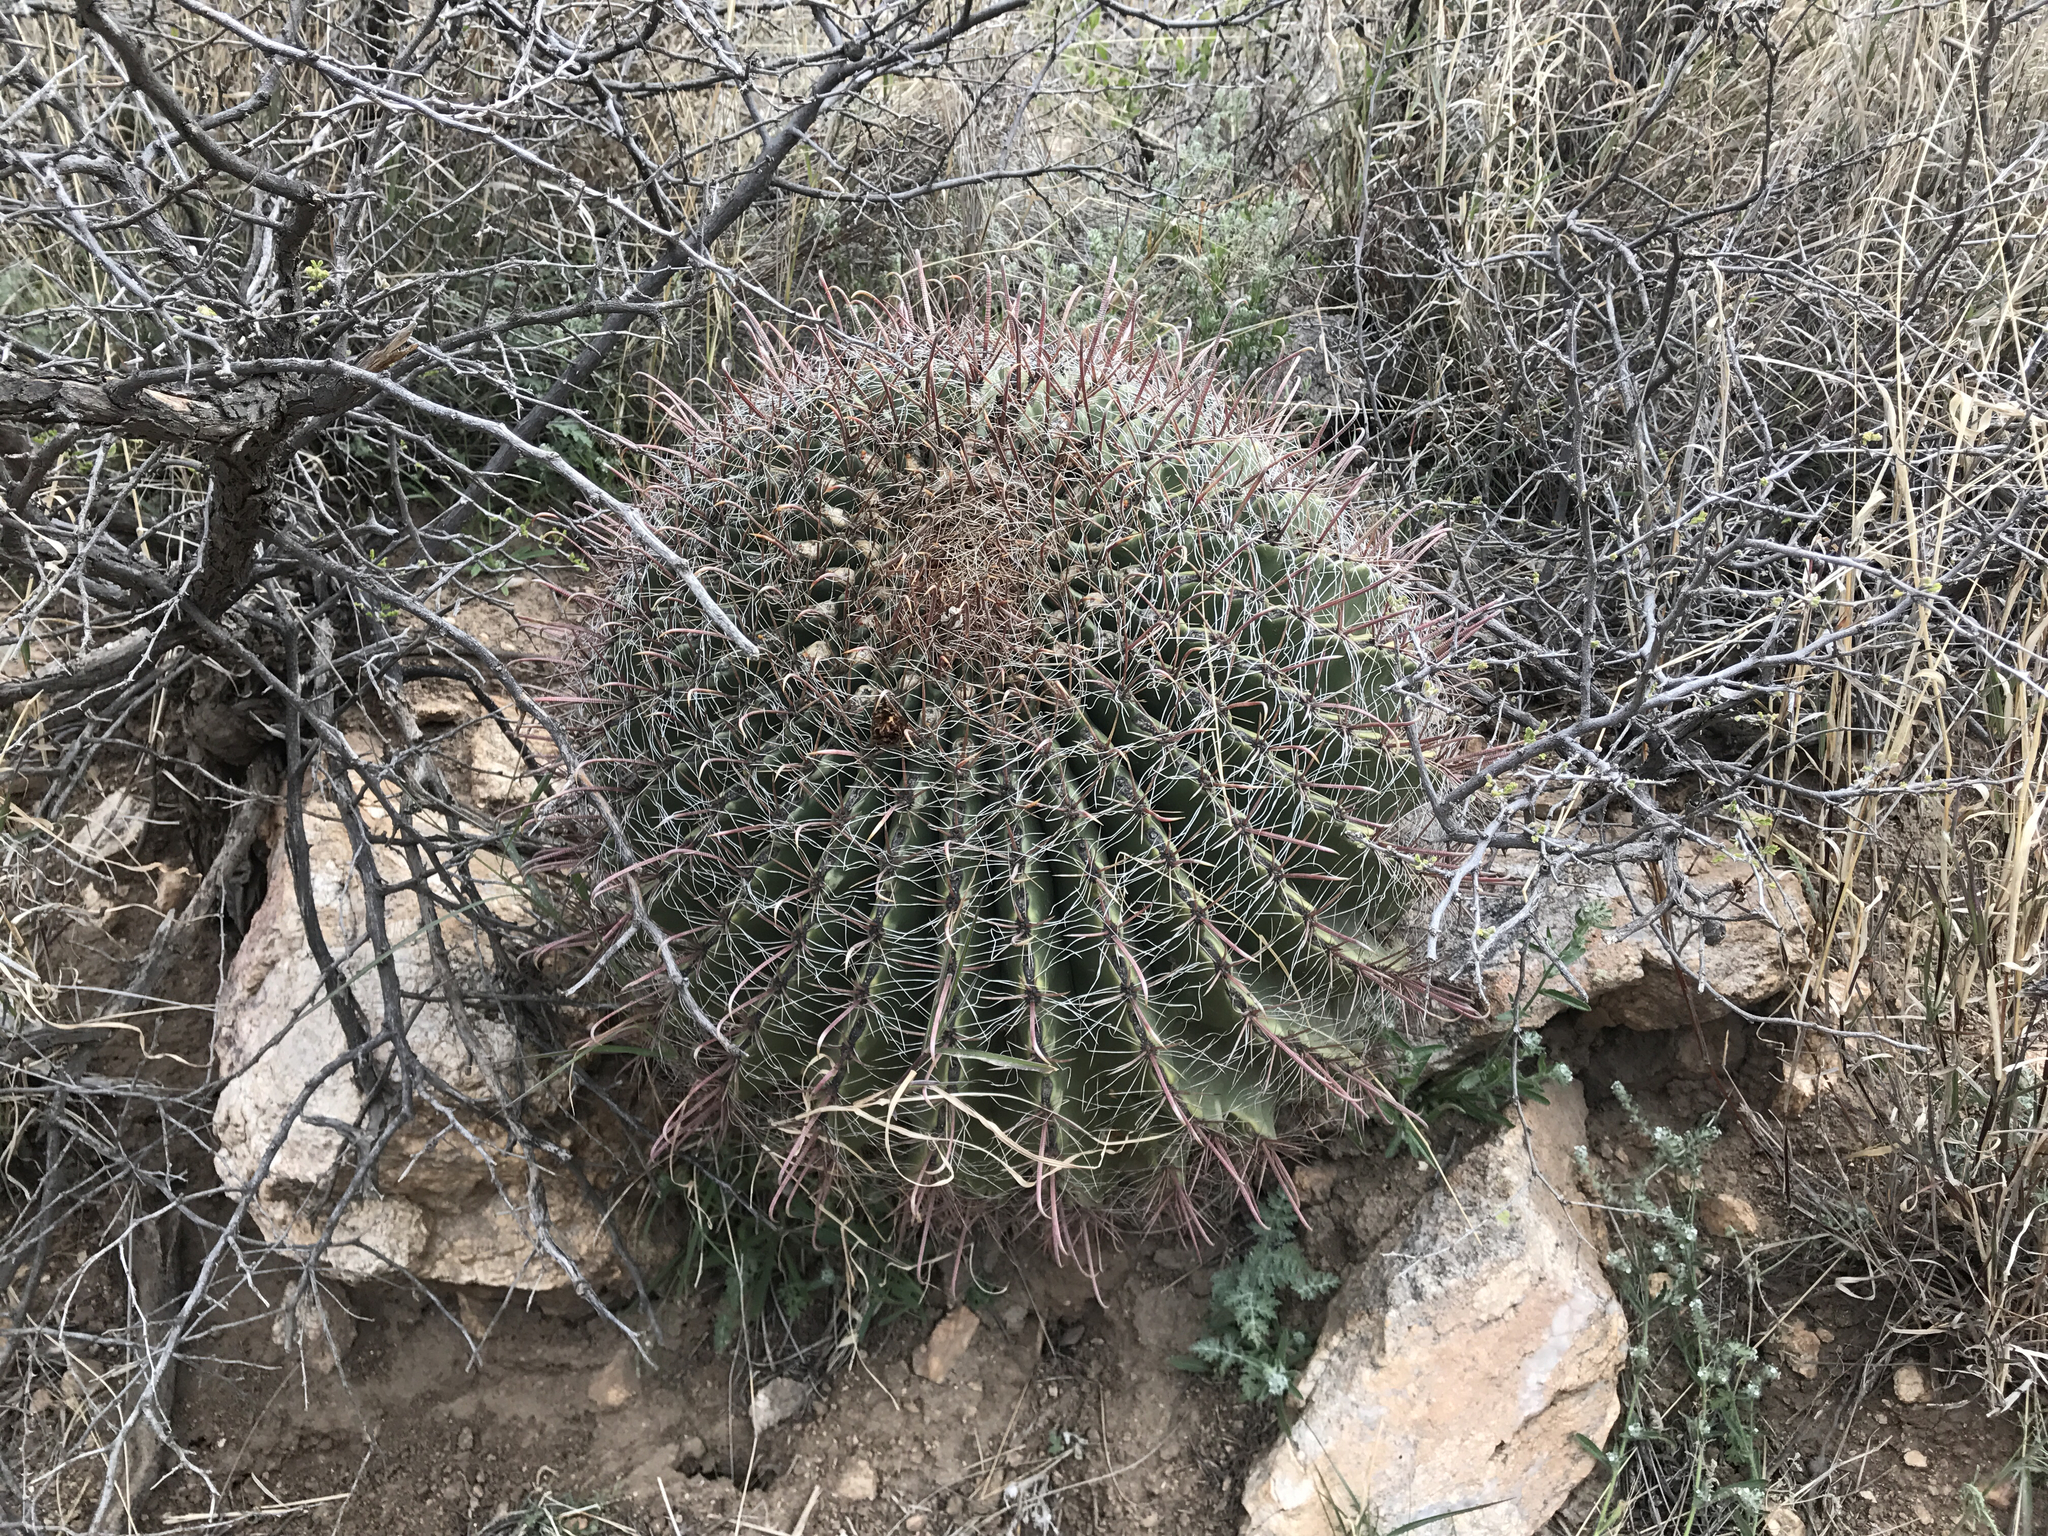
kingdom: Plantae
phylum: Tracheophyta
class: Magnoliopsida
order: Caryophyllales
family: Cactaceae
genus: Ferocactus
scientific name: Ferocactus wislizeni
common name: Candy barrel cactus
